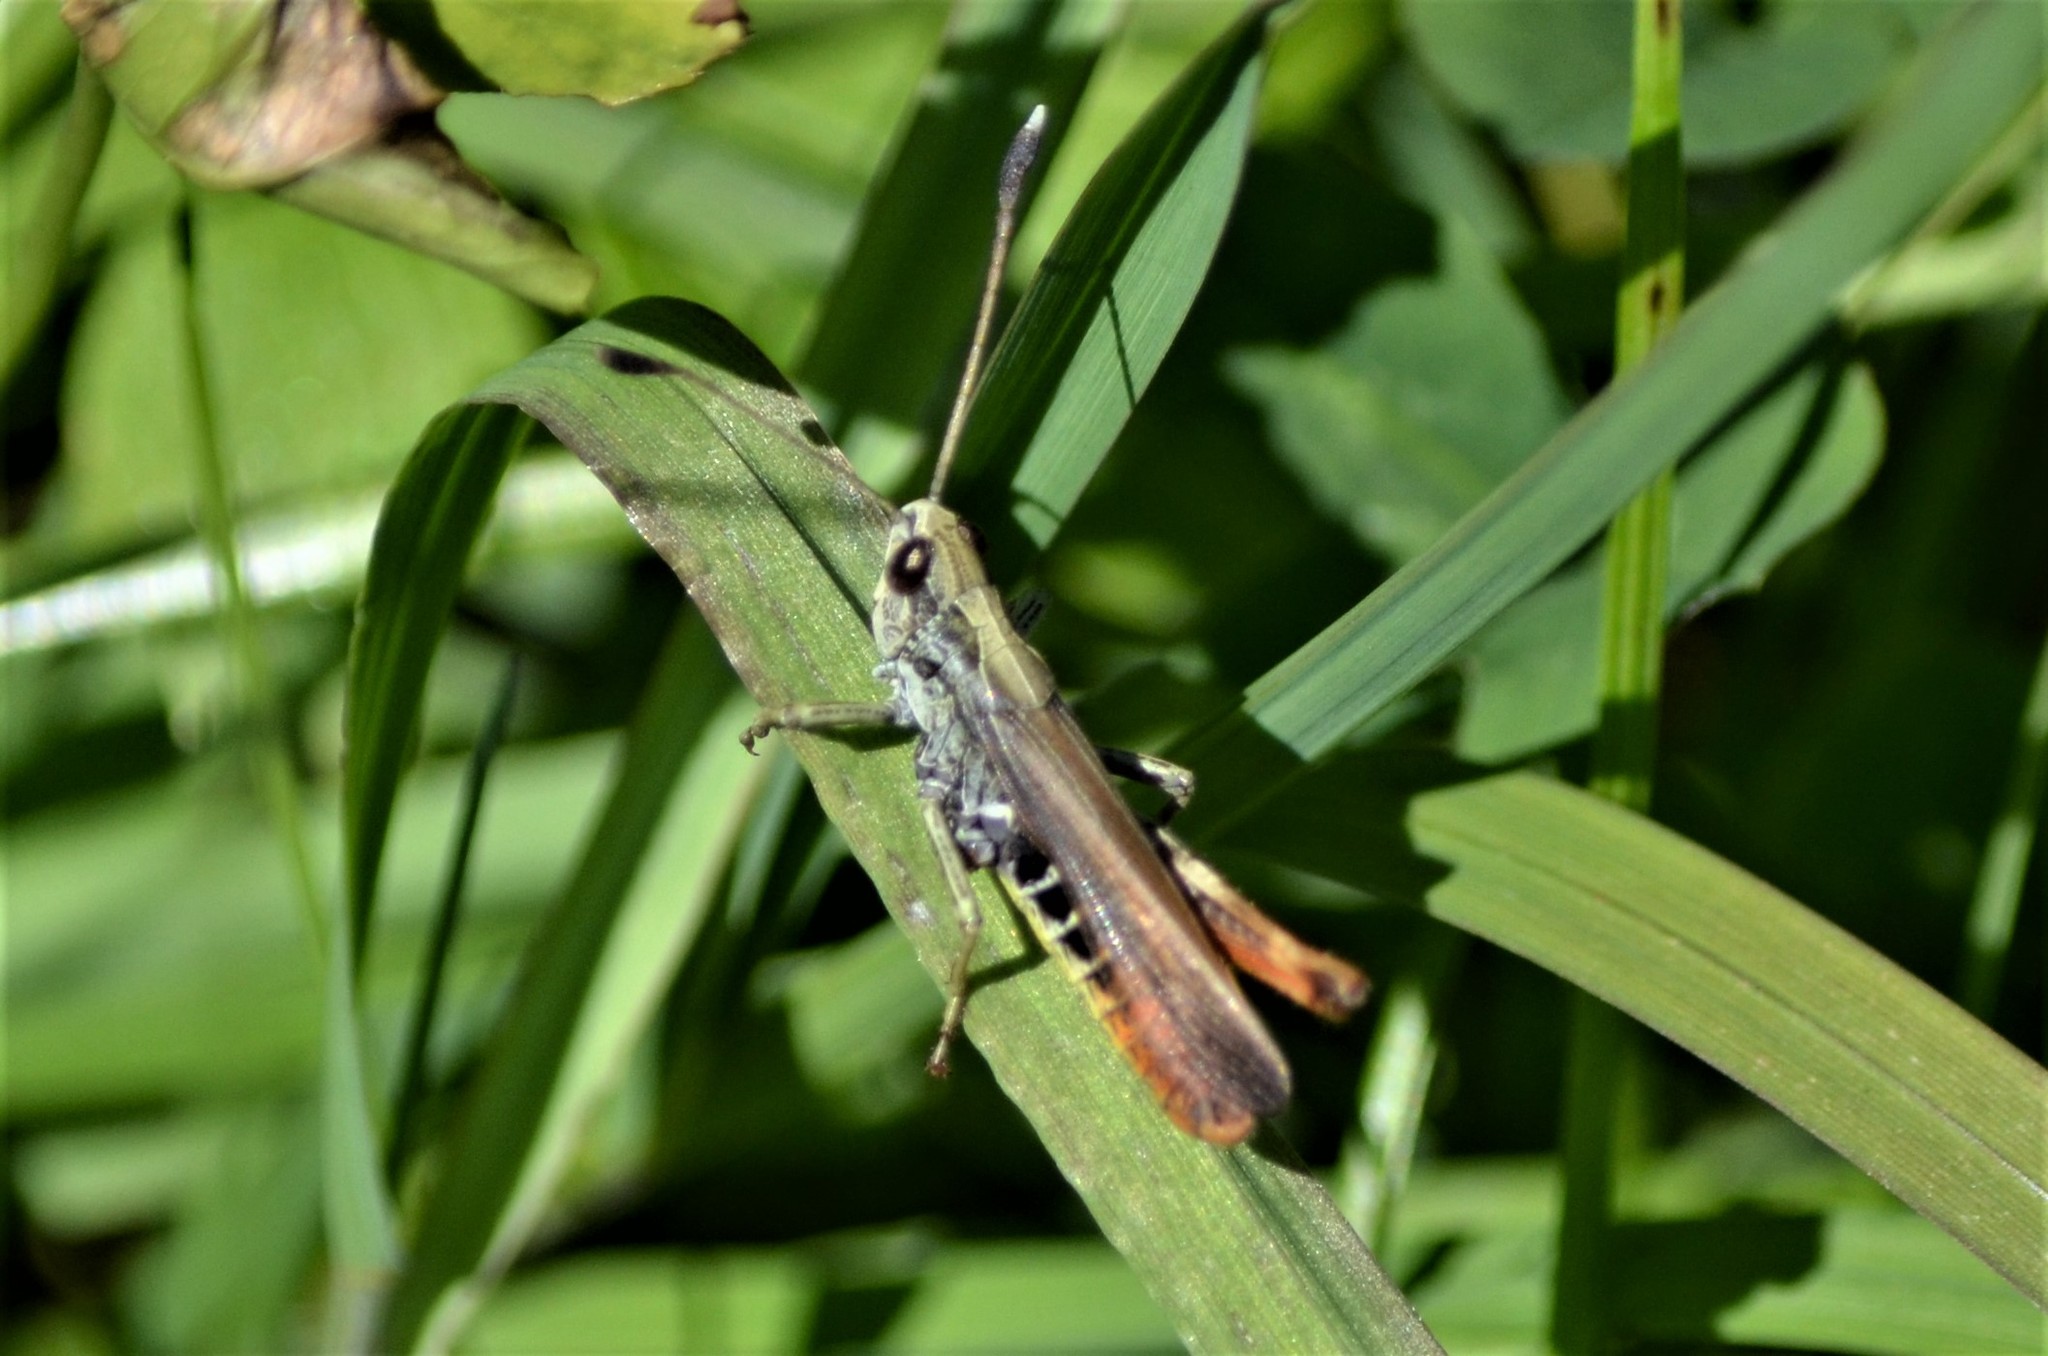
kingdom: Animalia
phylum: Arthropoda
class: Insecta
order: Orthoptera
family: Acrididae
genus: Gomphocerippus
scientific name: Gomphocerippus rufus
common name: Rufous grasshopper
